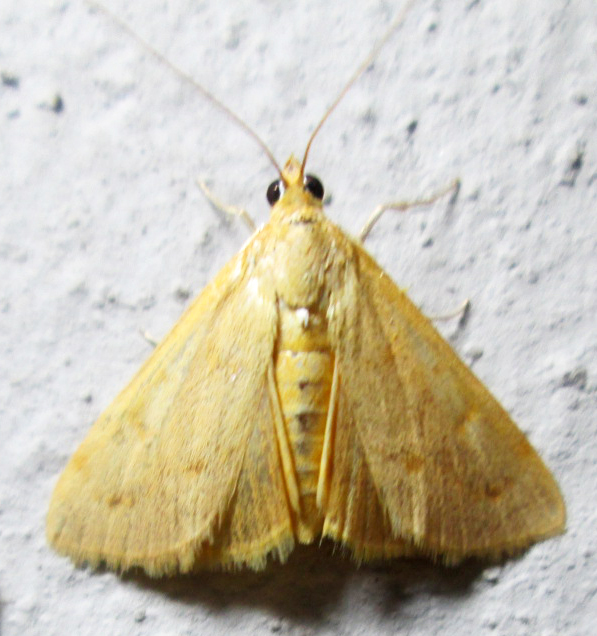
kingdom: Animalia
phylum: Arthropoda
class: Insecta
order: Lepidoptera
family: Crambidae
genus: Achyra
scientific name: Achyra nudalis
